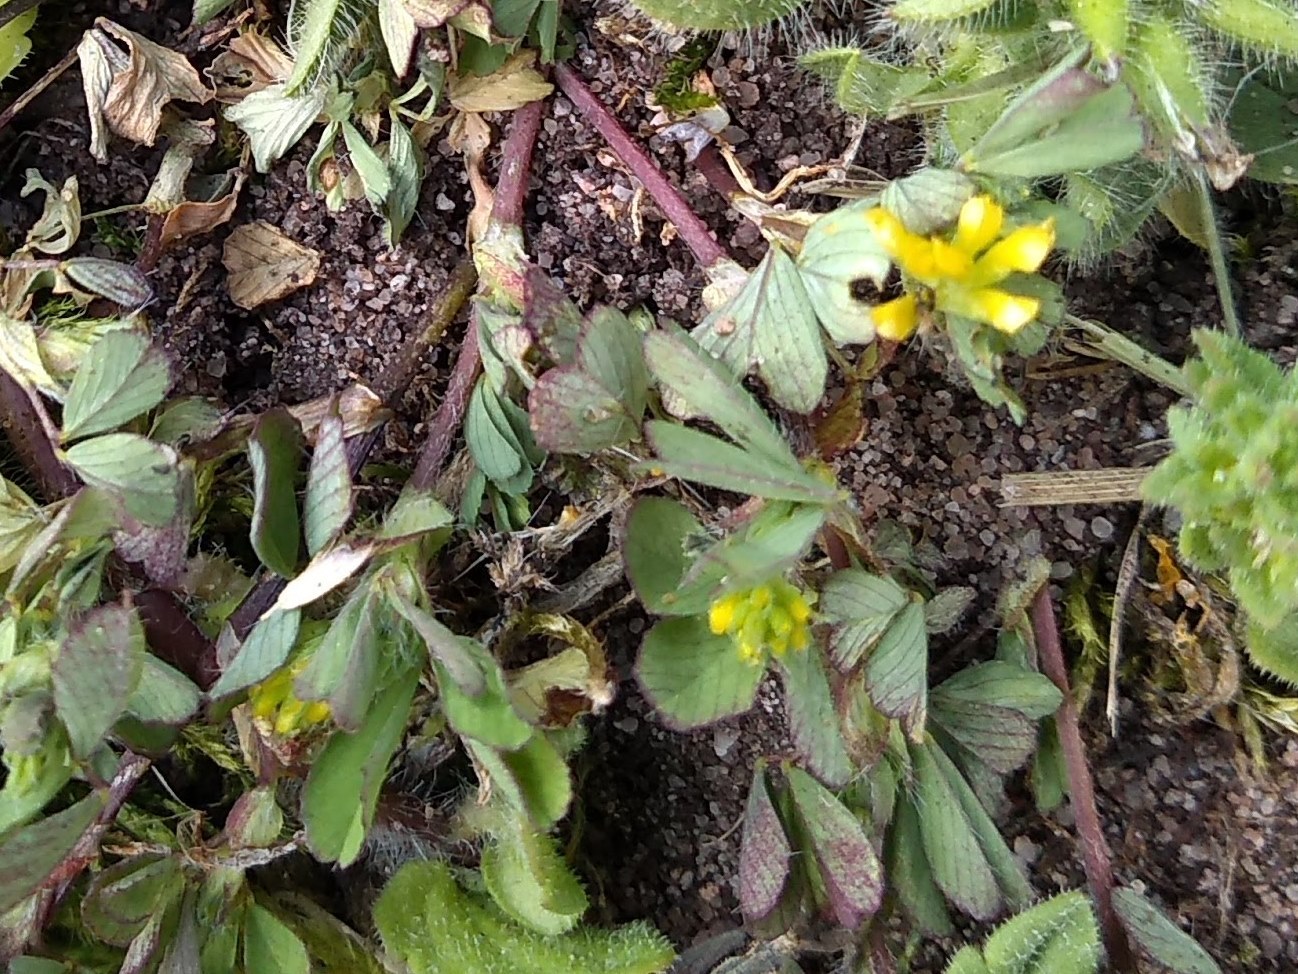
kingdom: Plantae
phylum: Tracheophyta
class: Magnoliopsida
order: Fabales
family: Fabaceae
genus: Trifolium
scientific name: Trifolium dubium
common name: Suckling clover
